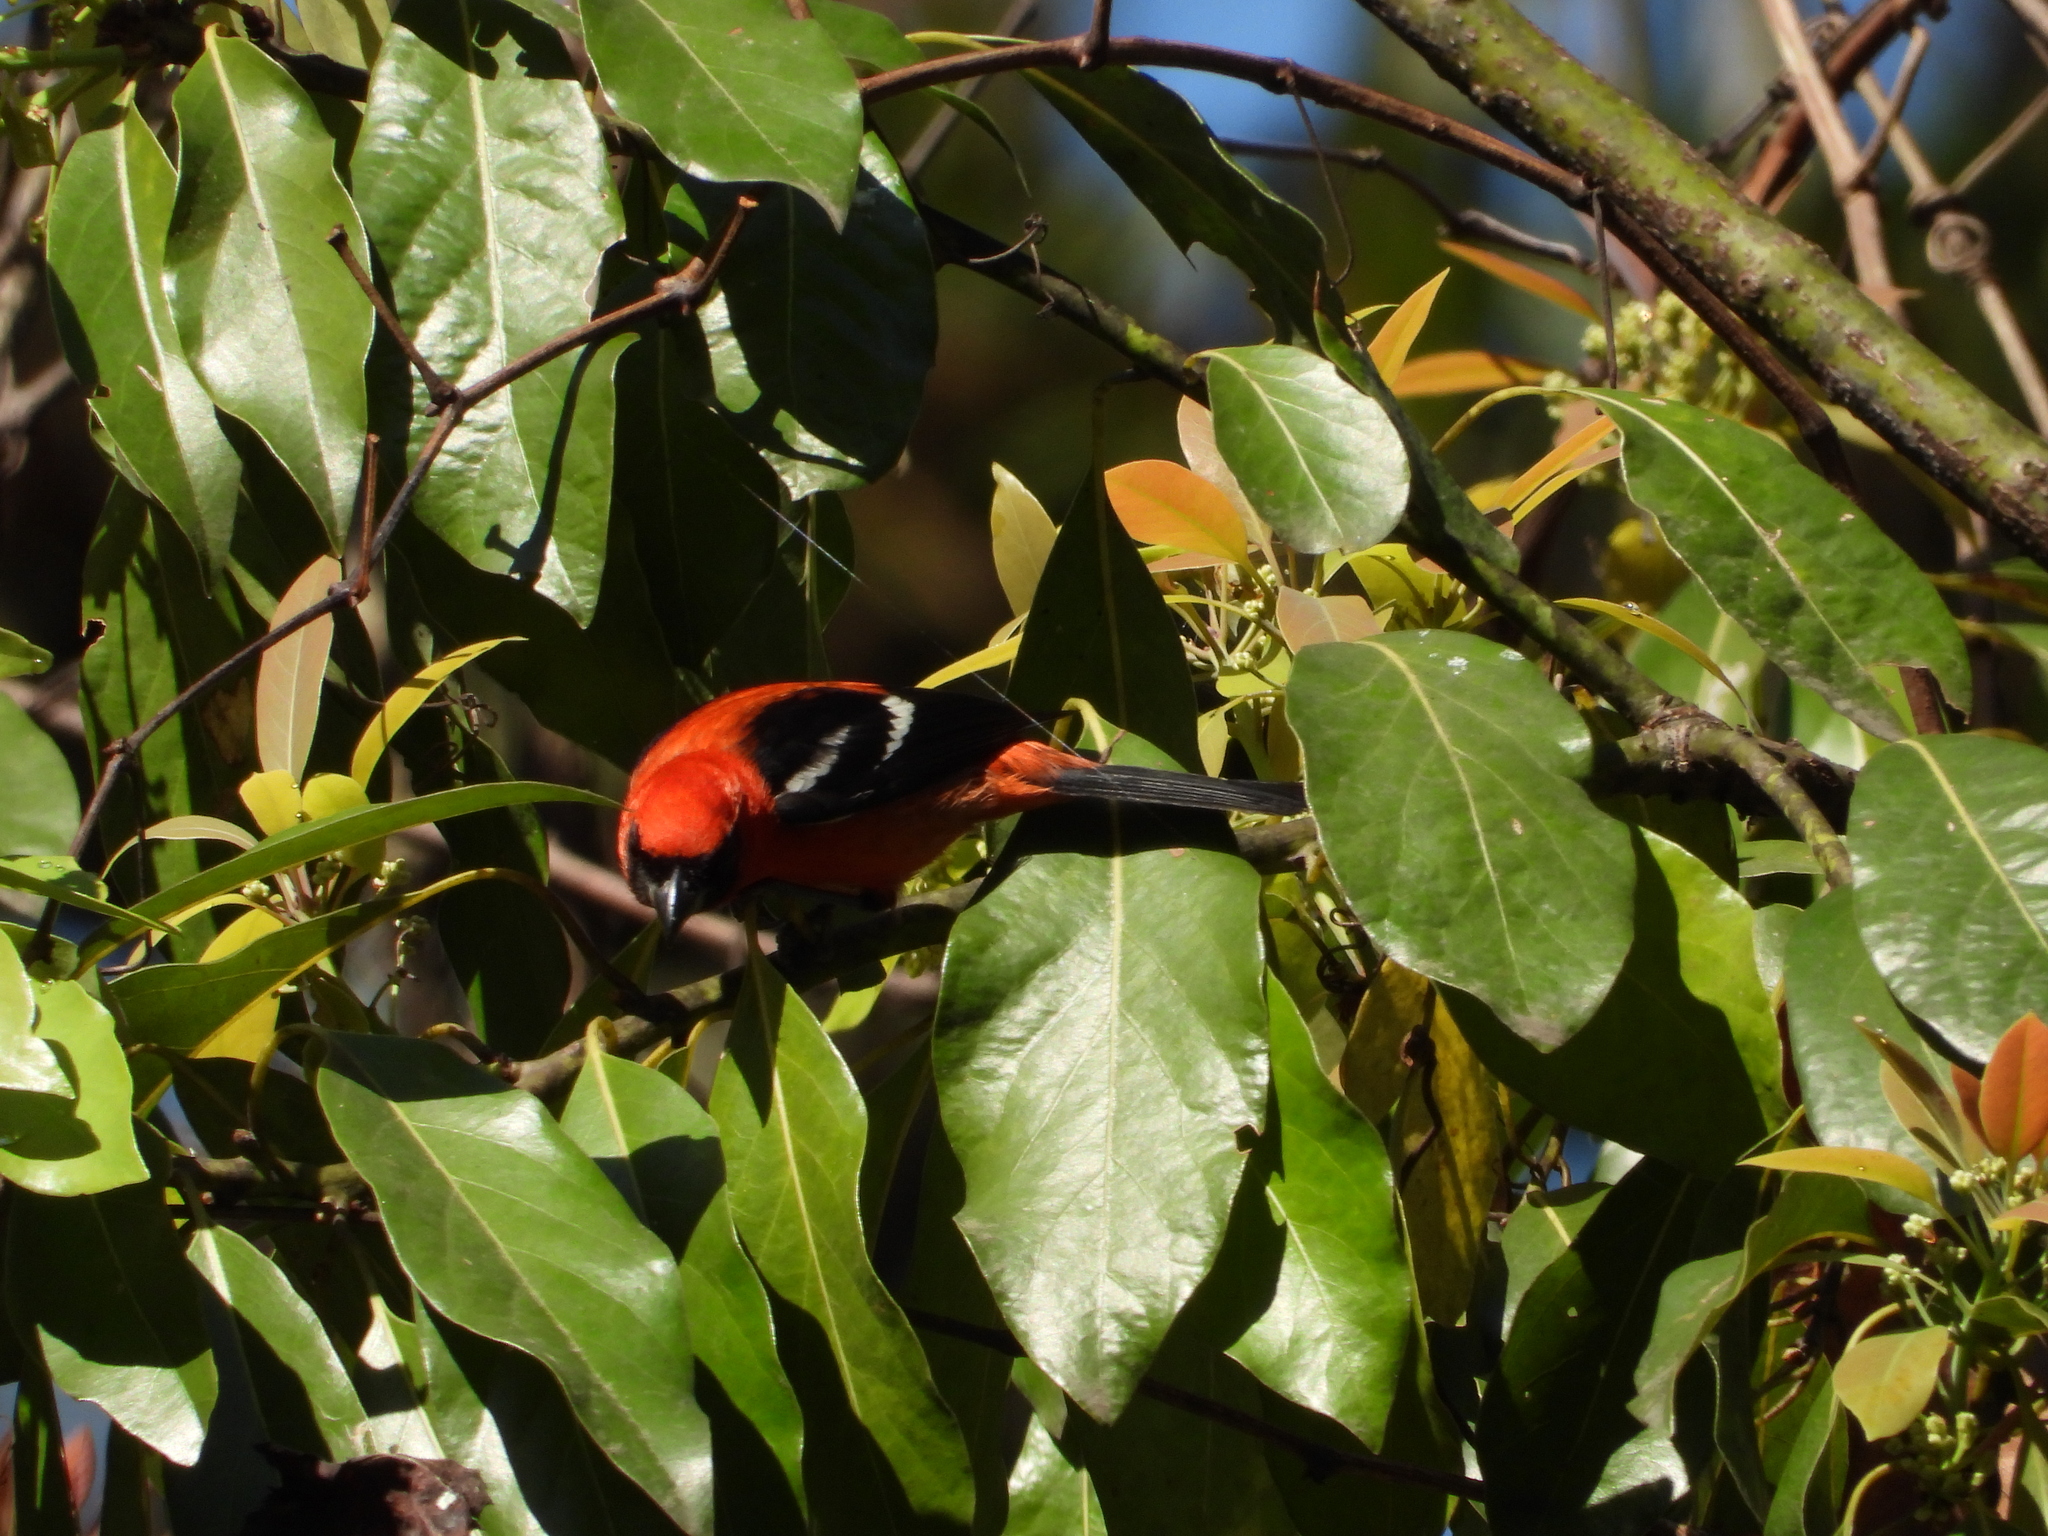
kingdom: Animalia
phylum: Chordata
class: Aves
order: Passeriformes
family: Cardinalidae
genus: Piranga
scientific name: Piranga leucoptera
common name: White-winged tanager
